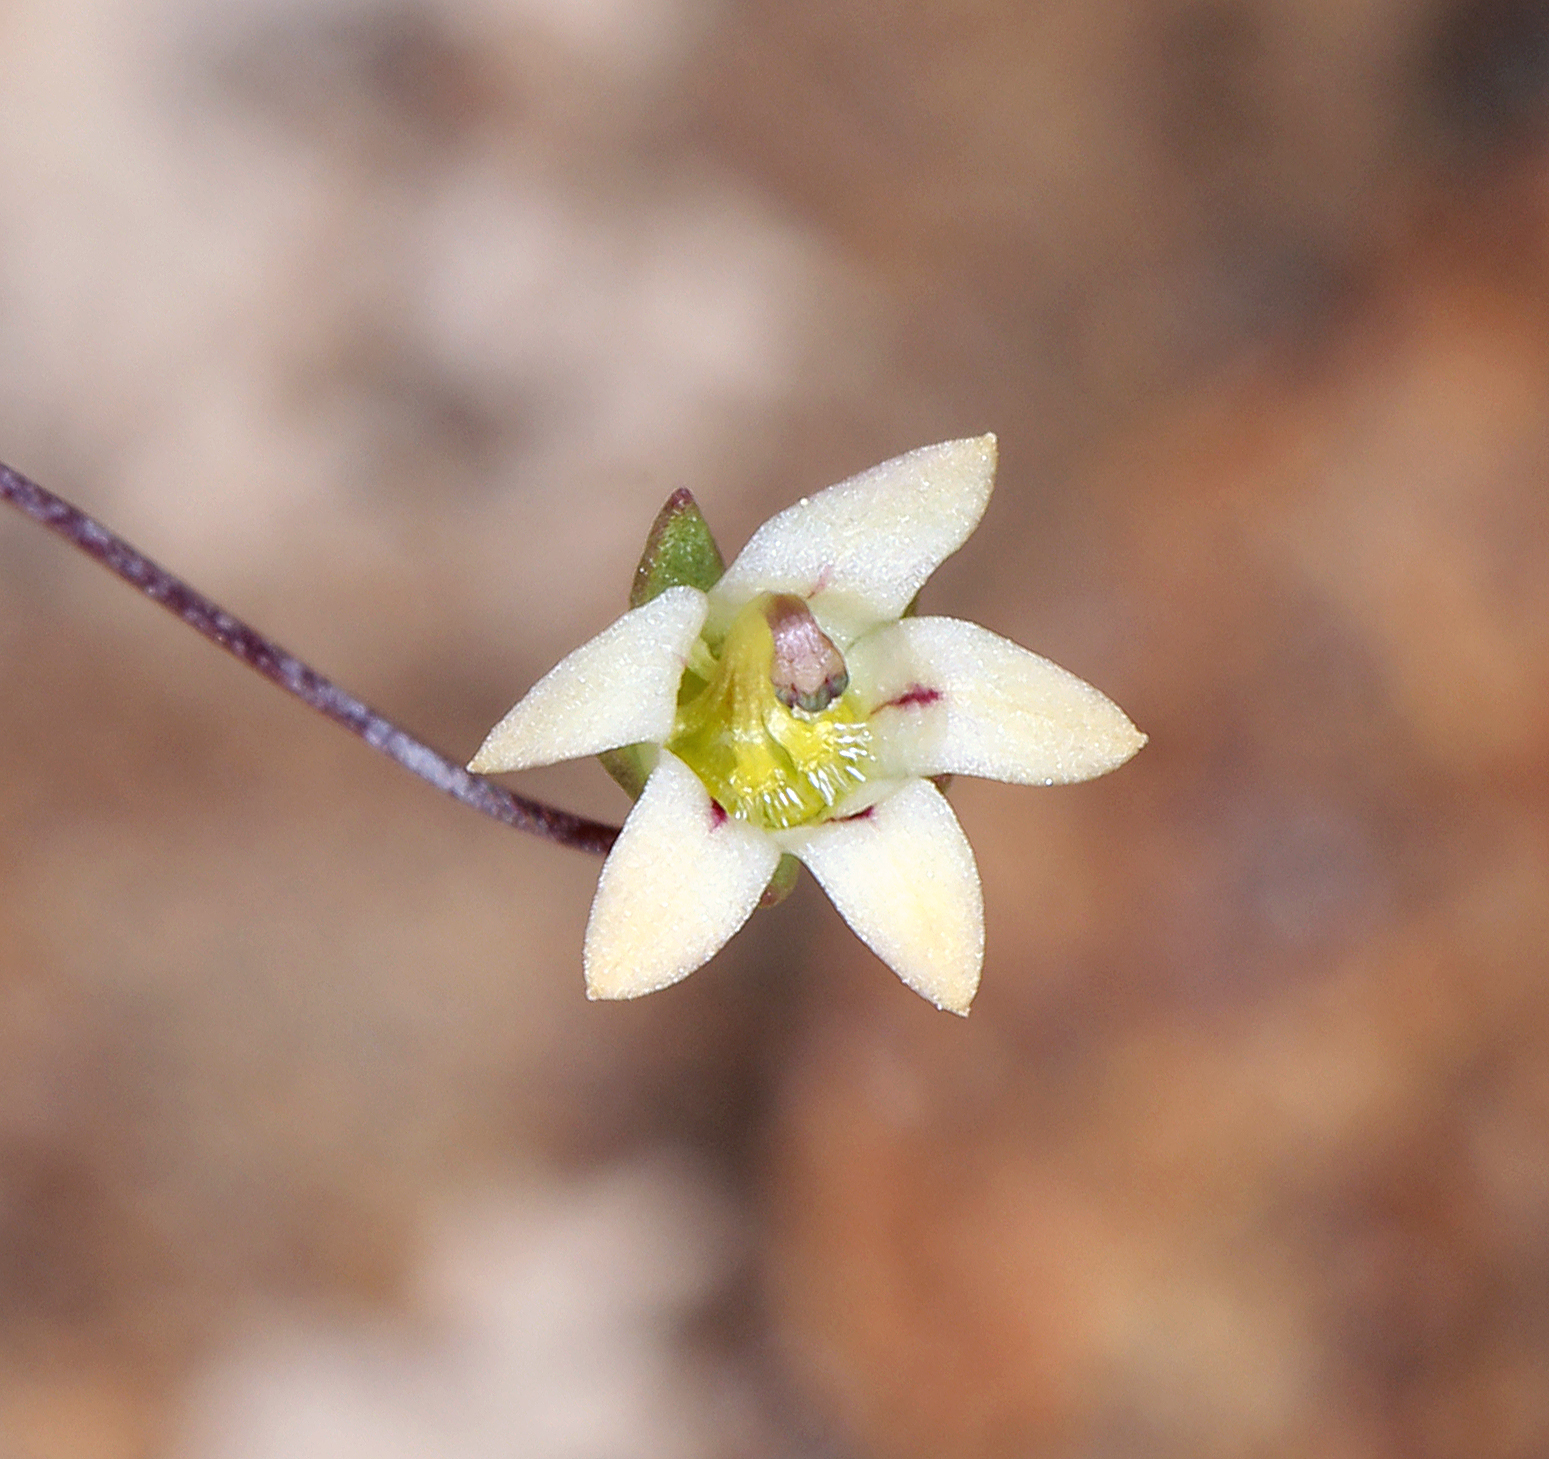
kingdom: Plantae
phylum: Tracheophyta
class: Magnoliopsida
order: Asterales
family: Campanulaceae
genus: Nemacladus
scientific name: Nemacladus inyoensis
